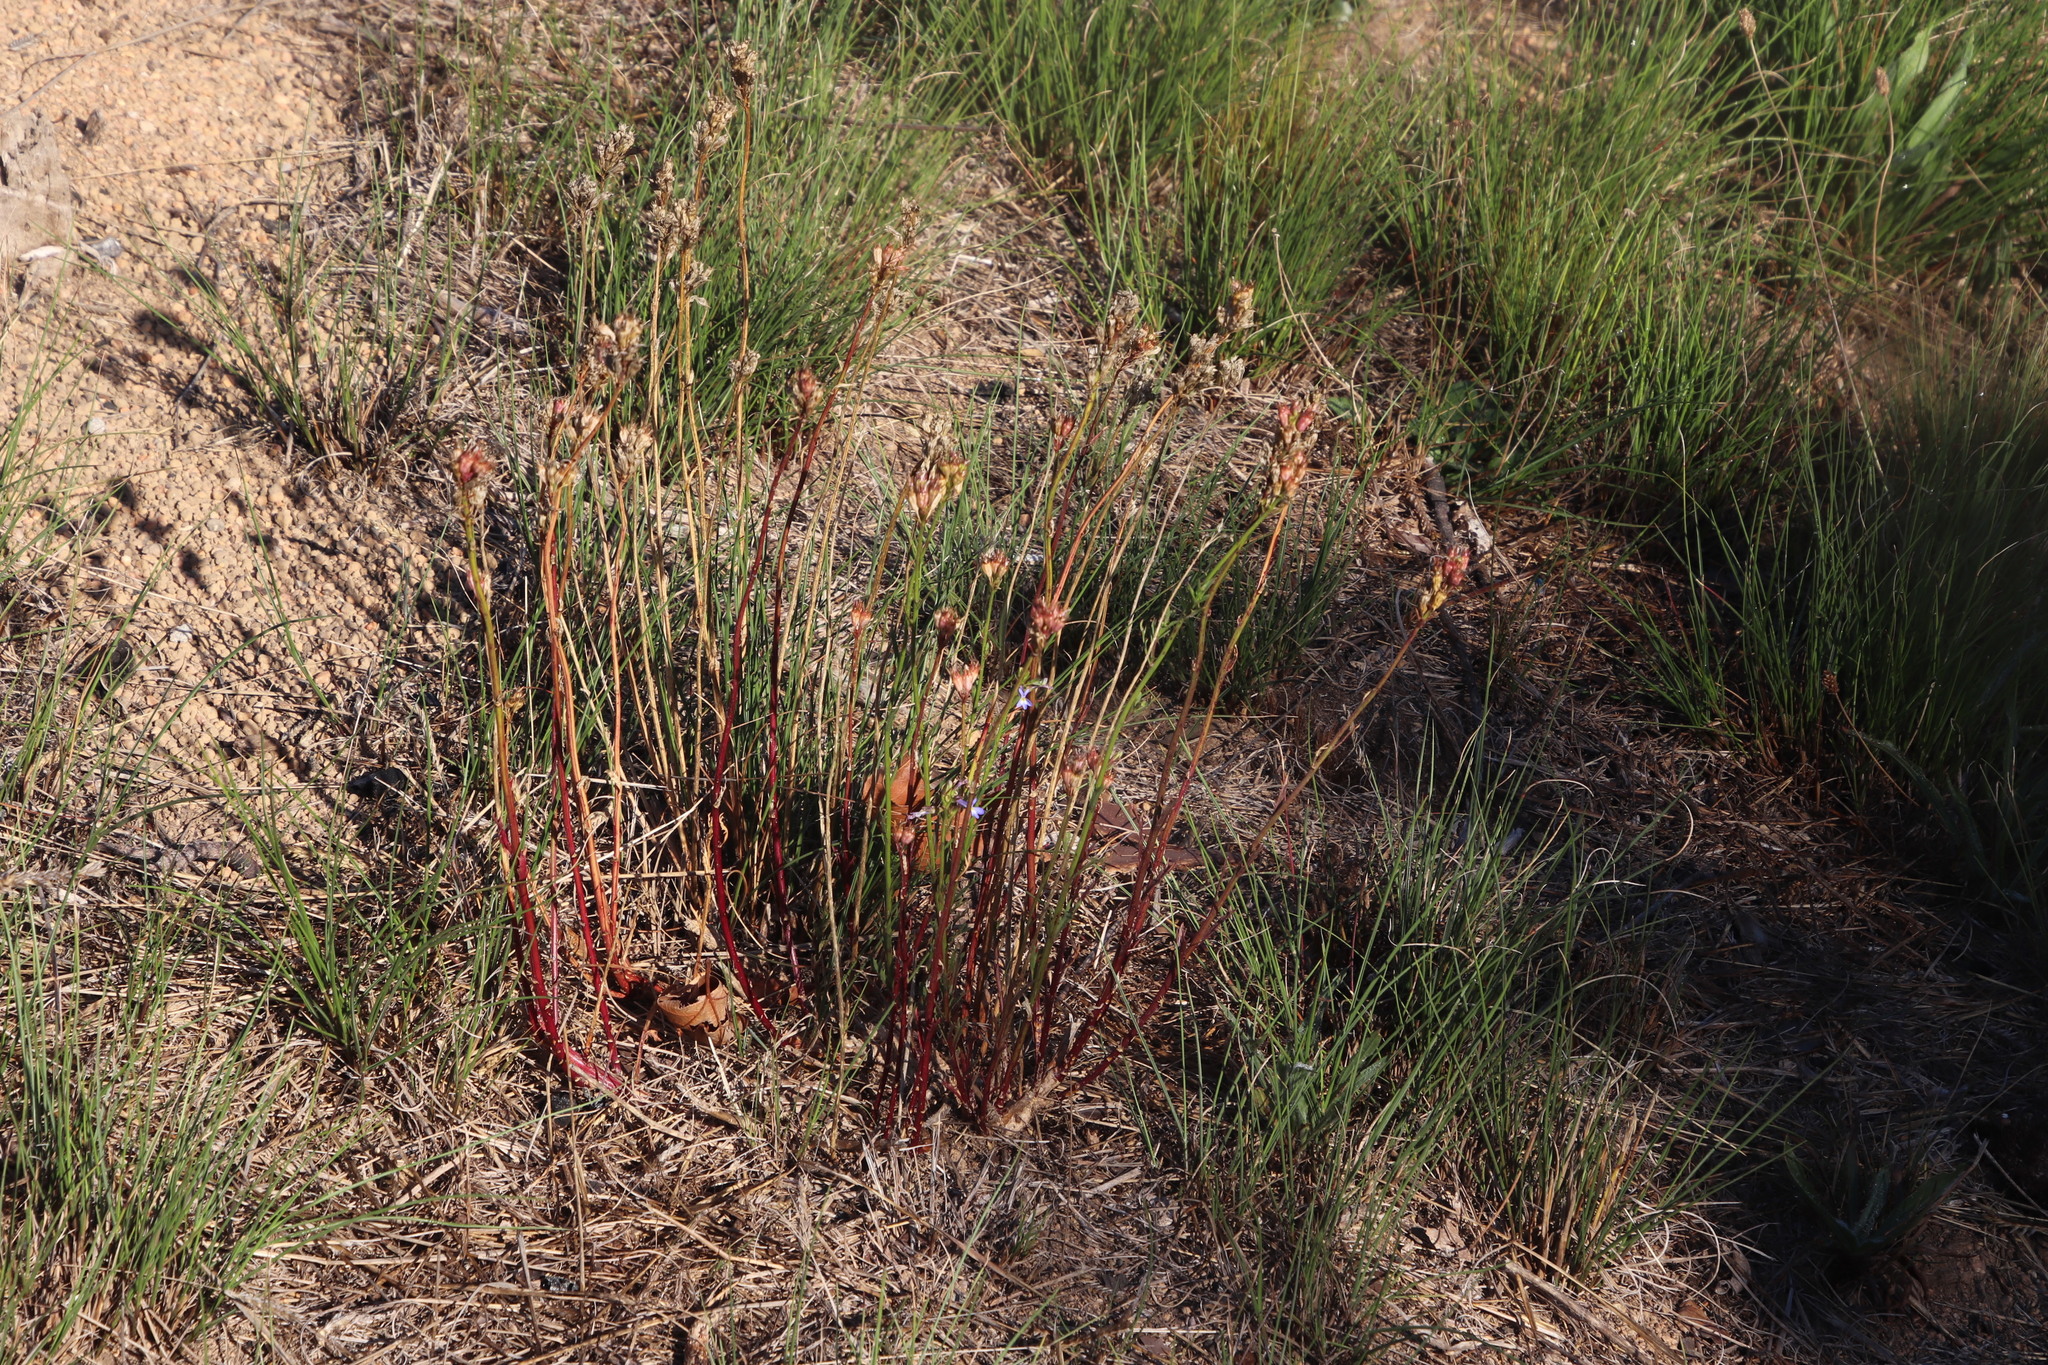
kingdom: Plantae
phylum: Tracheophyta
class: Magnoliopsida
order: Asterales
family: Campanulaceae
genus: Lobelia
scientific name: Lobelia comosa
